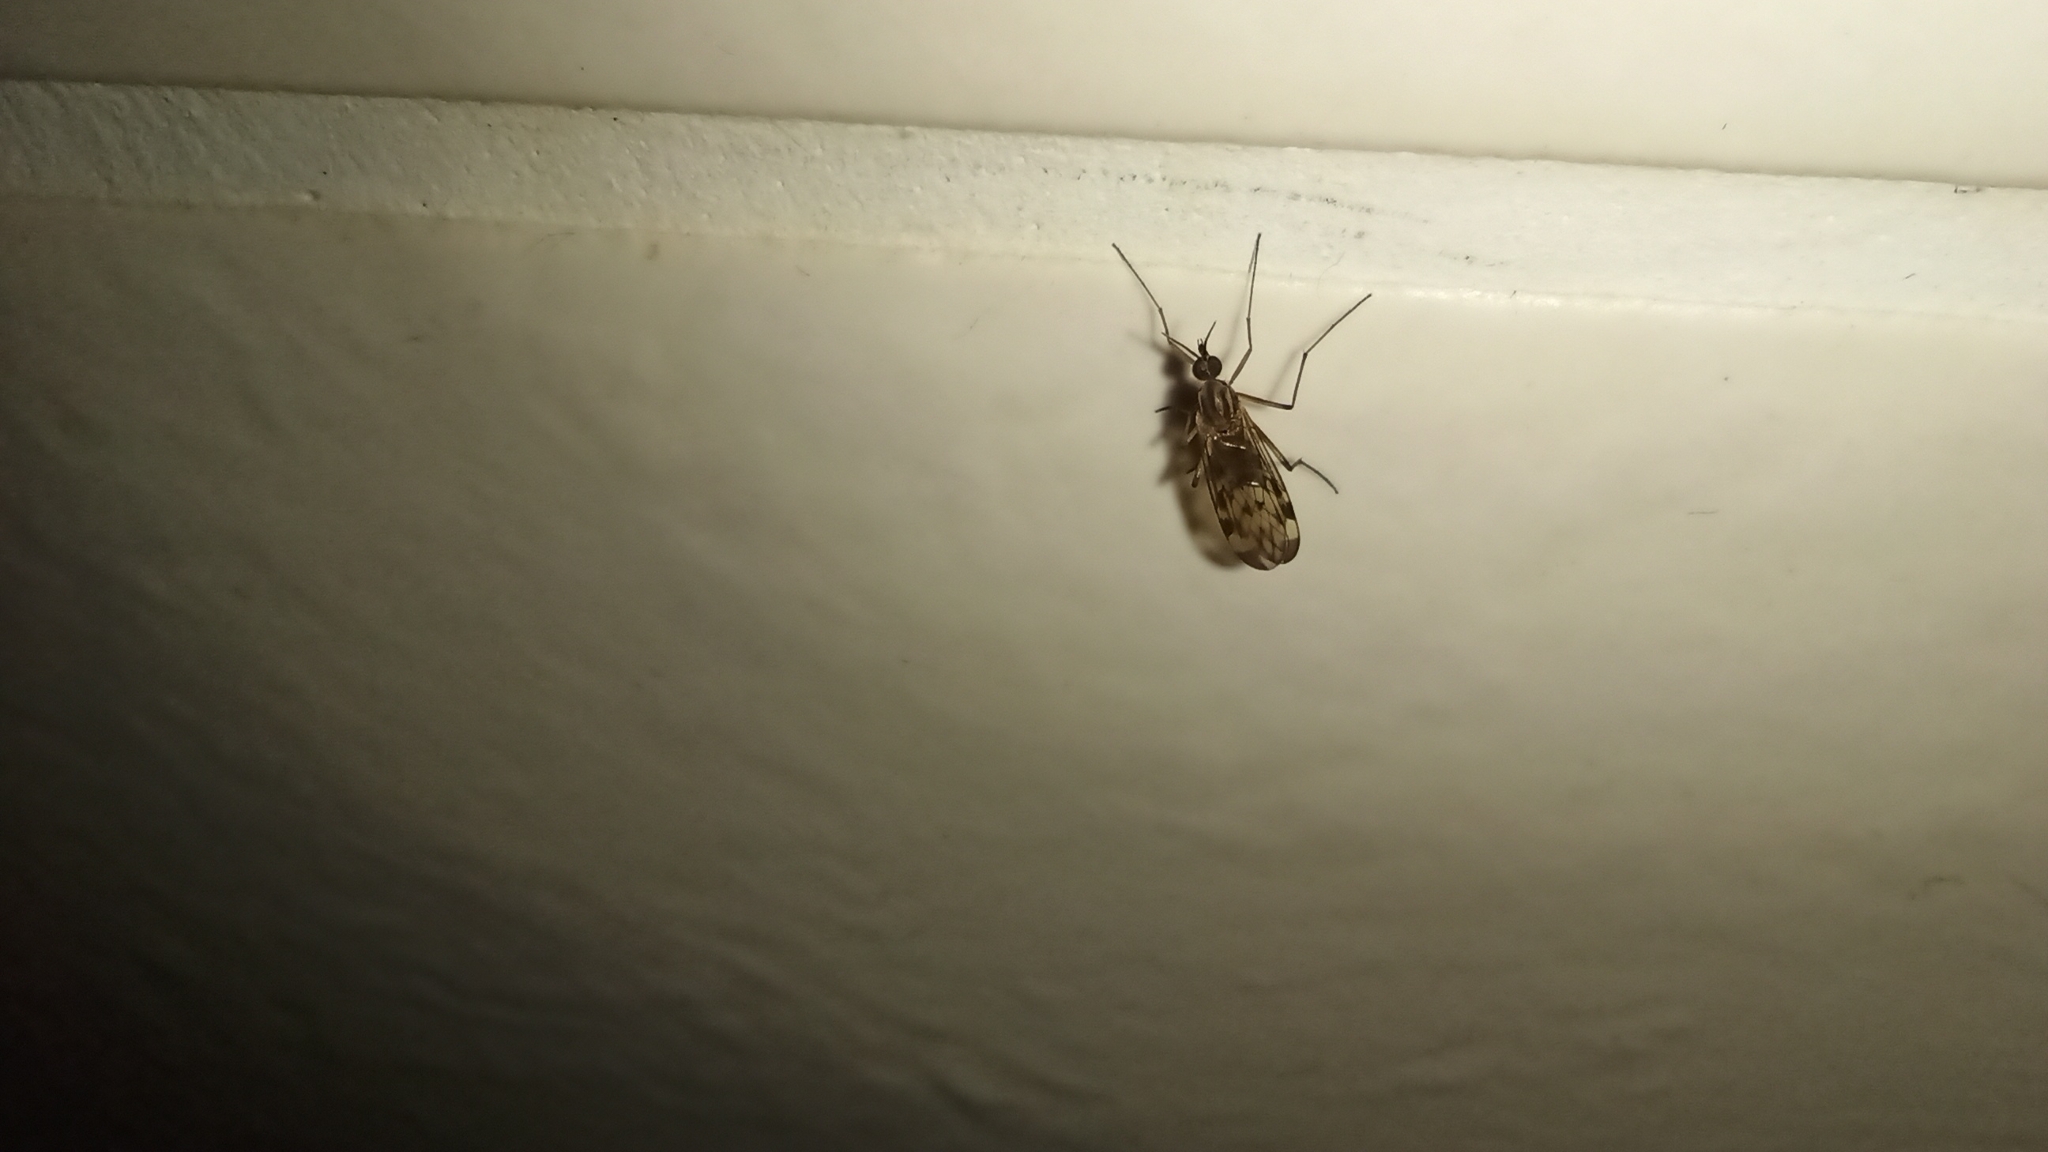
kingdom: Animalia
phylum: Arthropoda
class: Insecta
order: Diptera
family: Anisopodidae
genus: Sylvicola
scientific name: Sylvicola
